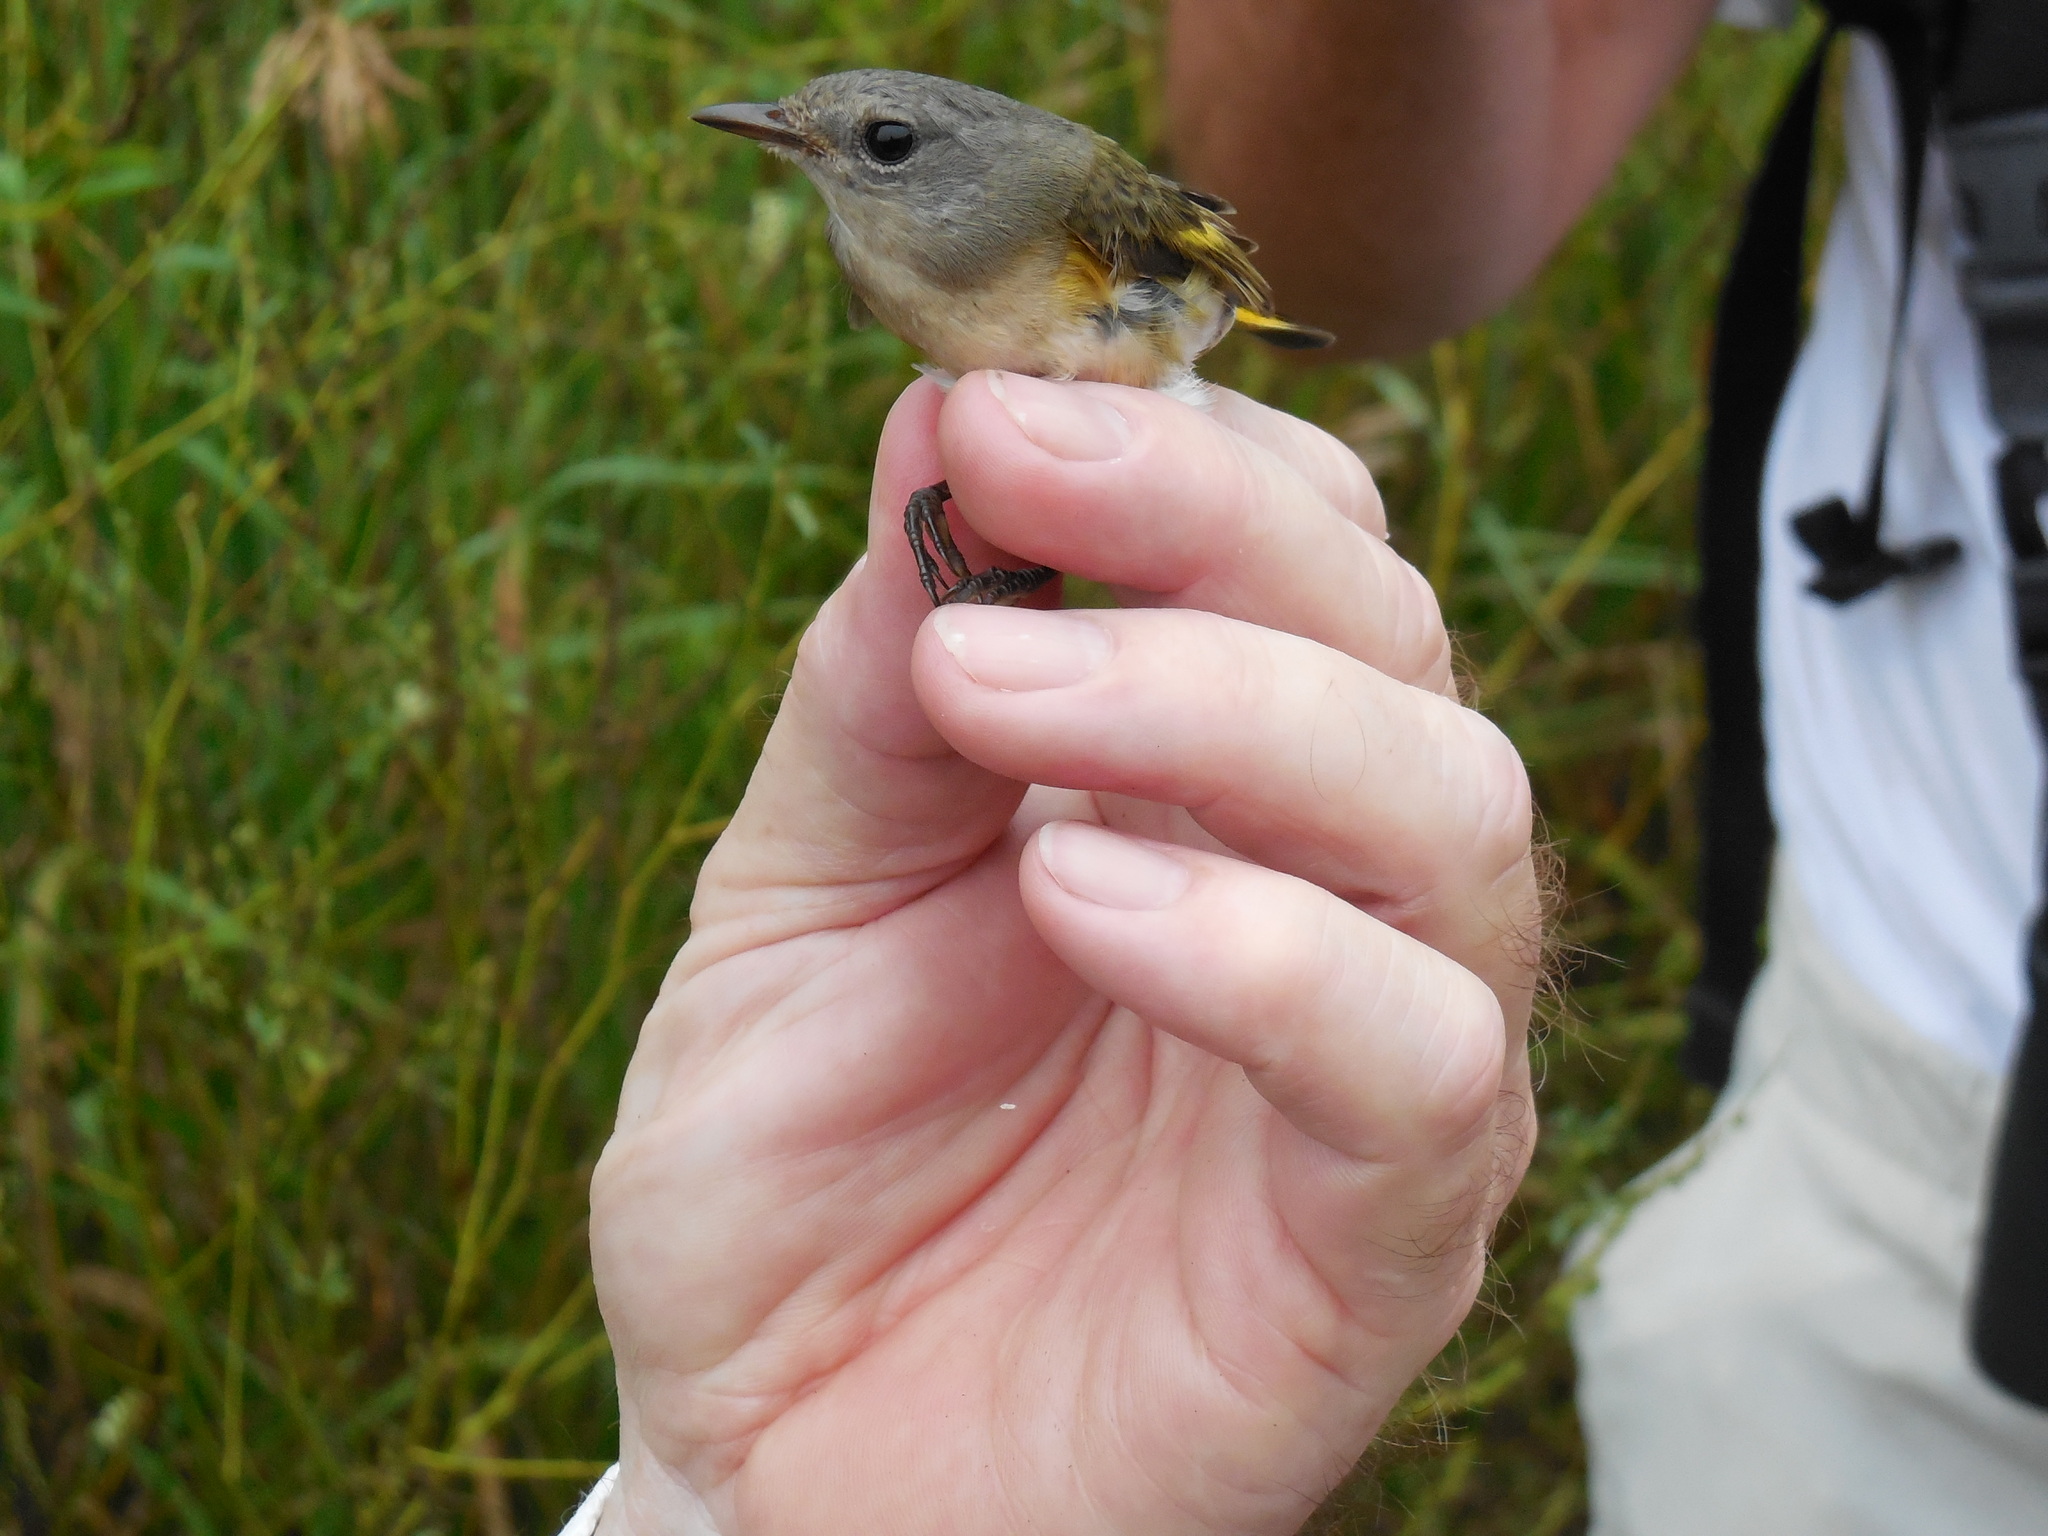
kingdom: Animalia
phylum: Chordata
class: Aves
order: Passeriformes
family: Parulidae
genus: Setophaga
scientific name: Setophaga ruticilla
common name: American redstart
